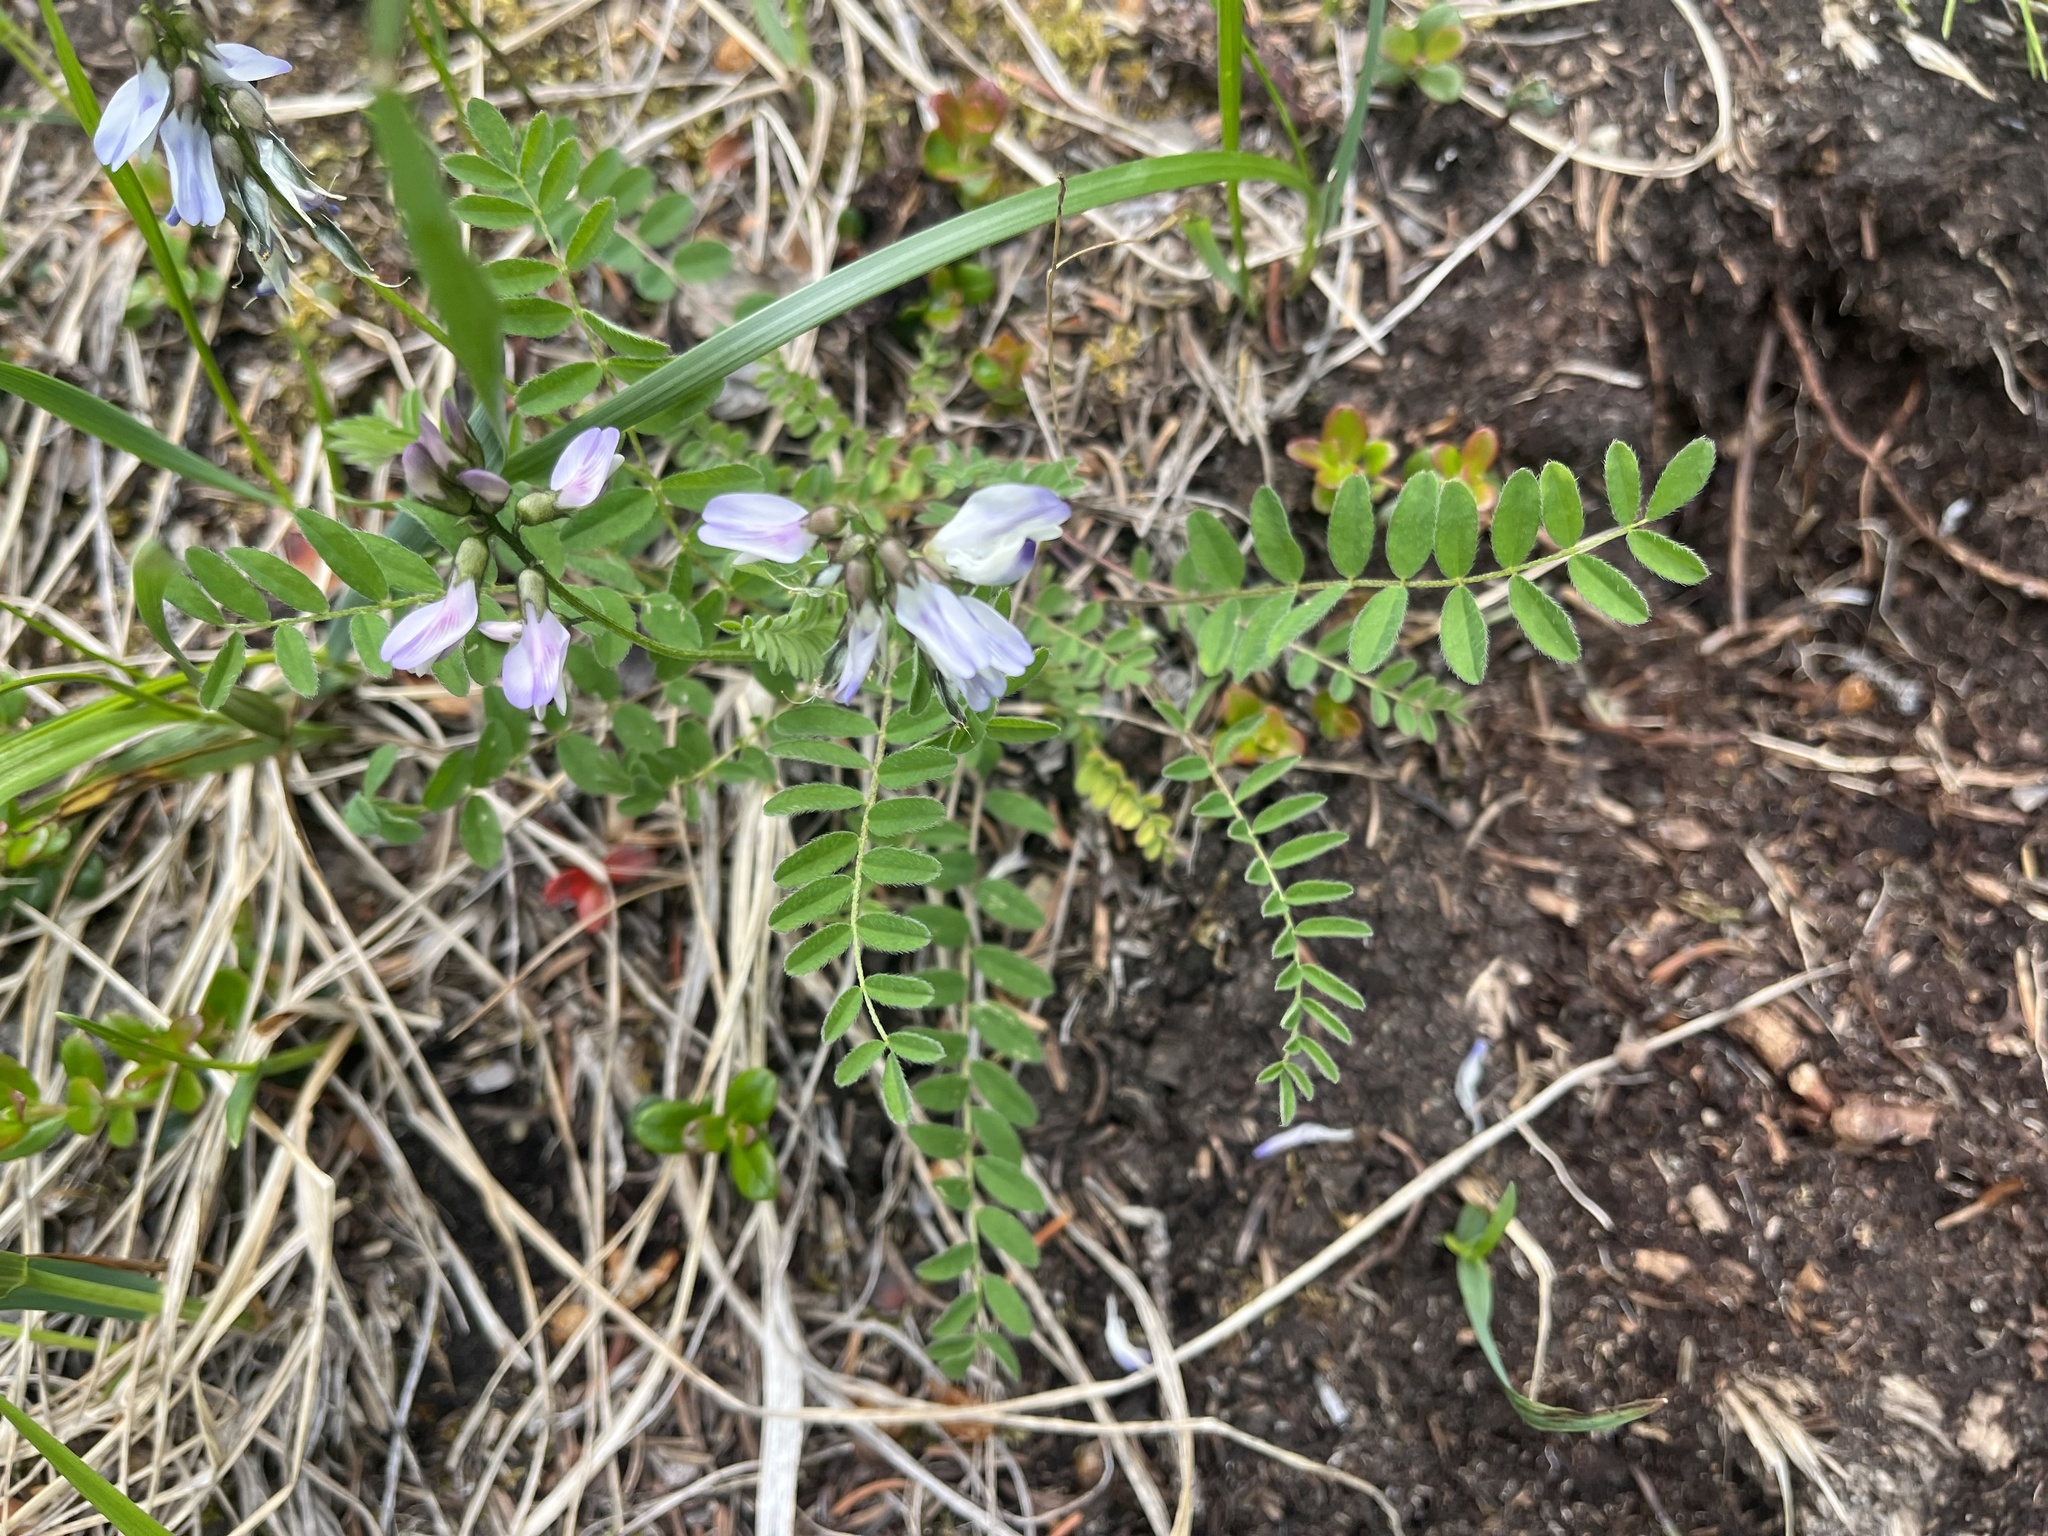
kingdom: Plantae
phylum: Tracheophyta
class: Magnoliopsida
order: Fabales
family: Fabaceae
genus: Astragalus
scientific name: Astragalus alpinus
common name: Alpine milk-vetch
